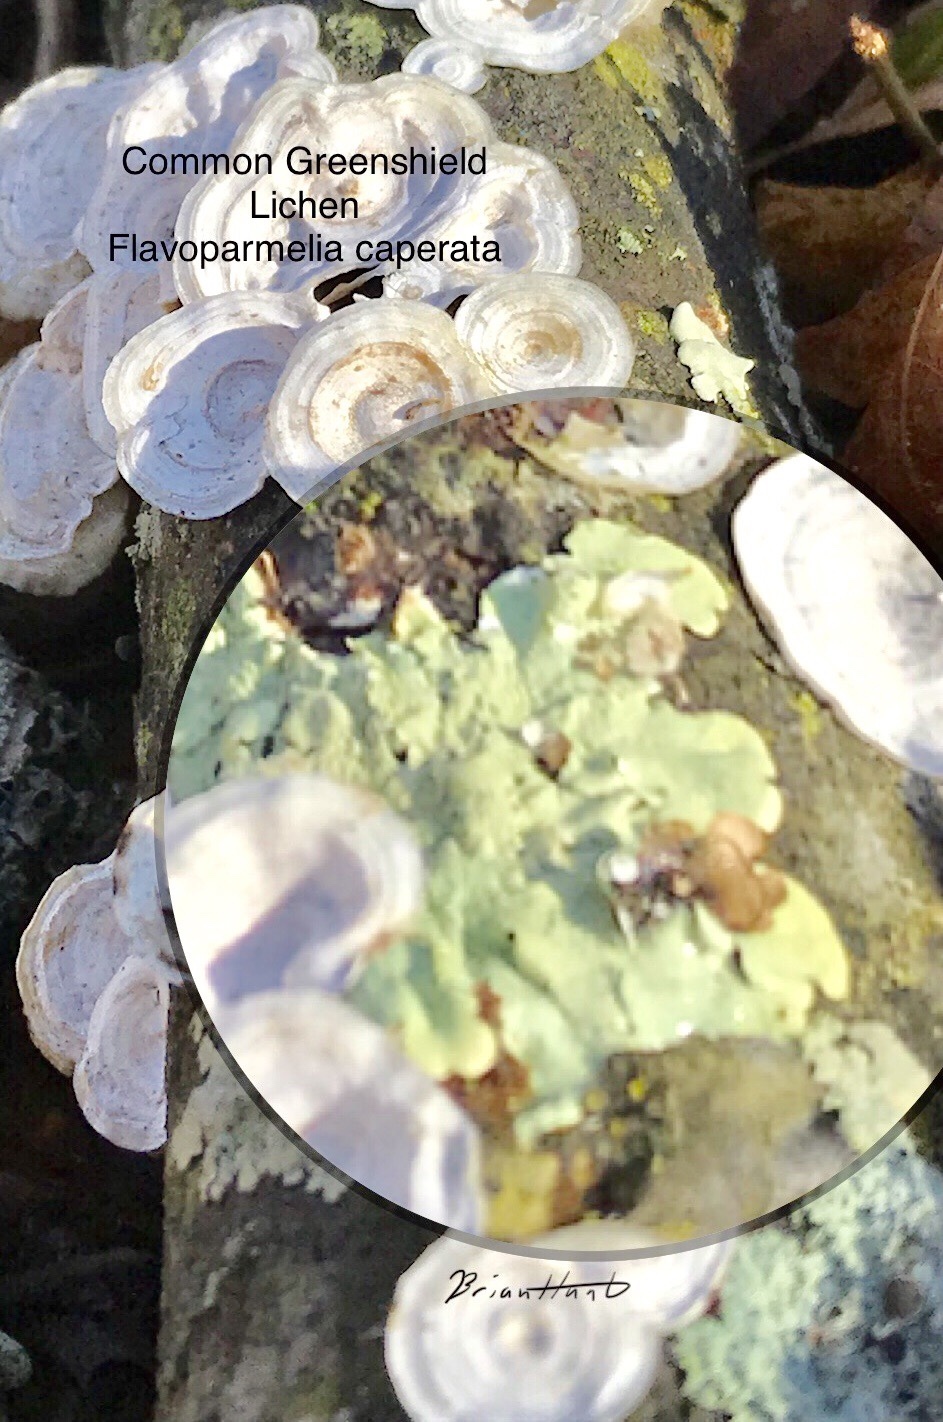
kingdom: Fungi
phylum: Ascomycota
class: Lecanoromycetes
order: Lecanorales
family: Parmeliaceae
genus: Flavoparmelia
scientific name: Flavoparmelia caperata
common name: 40-mile per hour lichen
